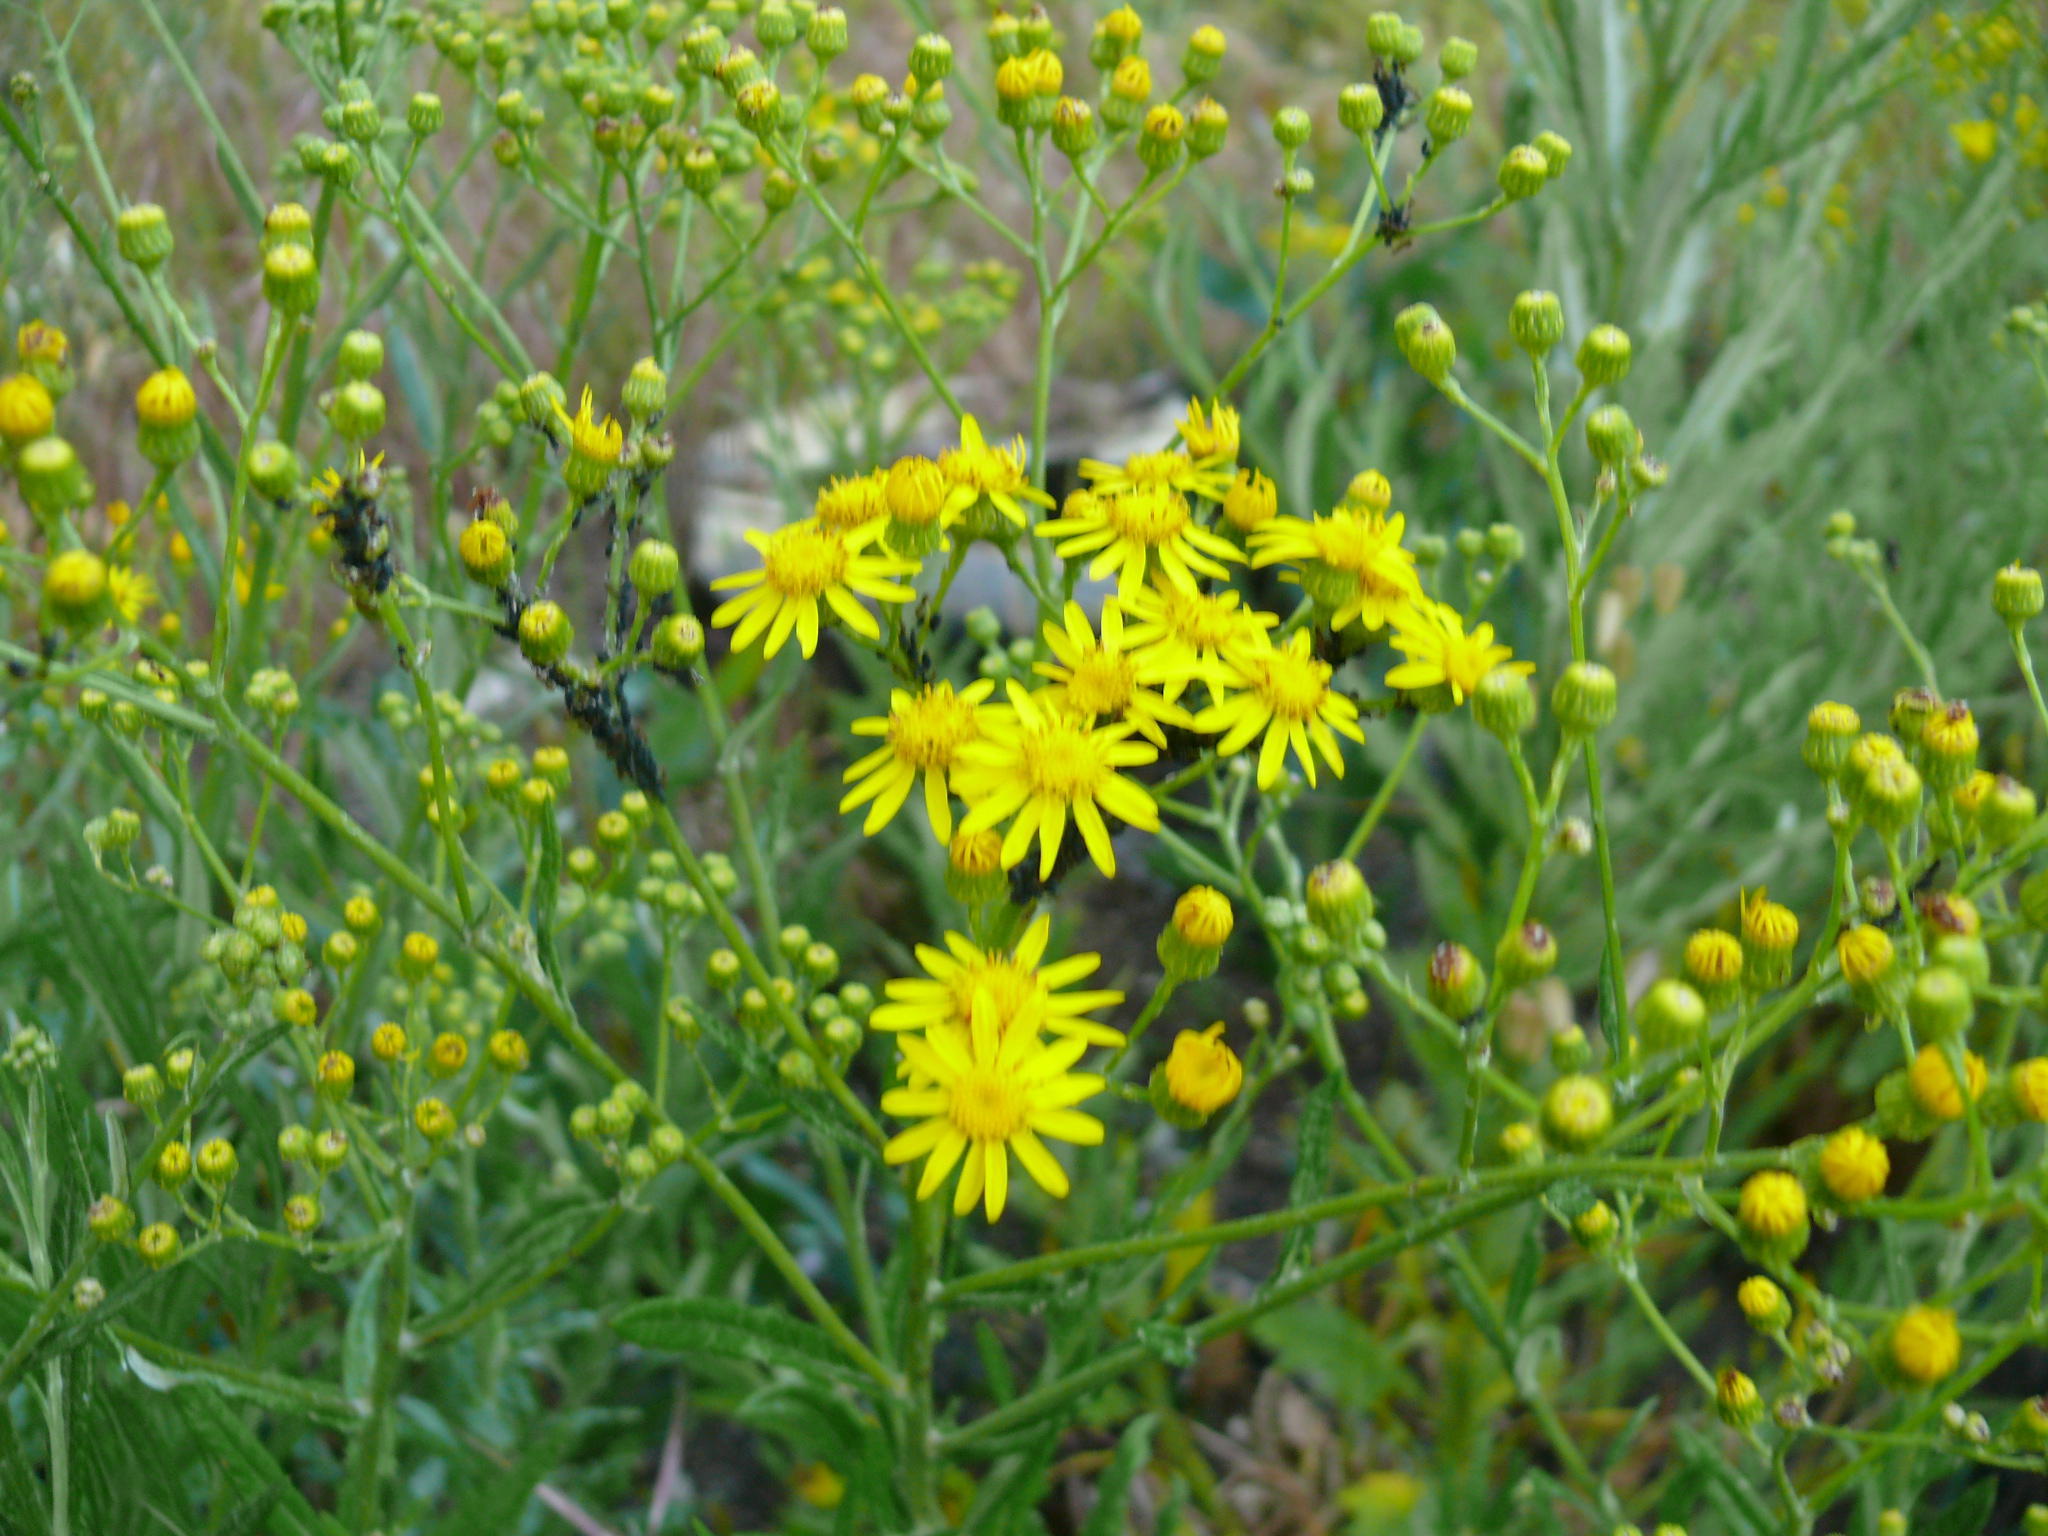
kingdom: Plantae
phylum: Tracheophyta
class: Magnoliopsida
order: Asterales
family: Asteraceae
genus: Senecio
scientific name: Senecio burchellii
